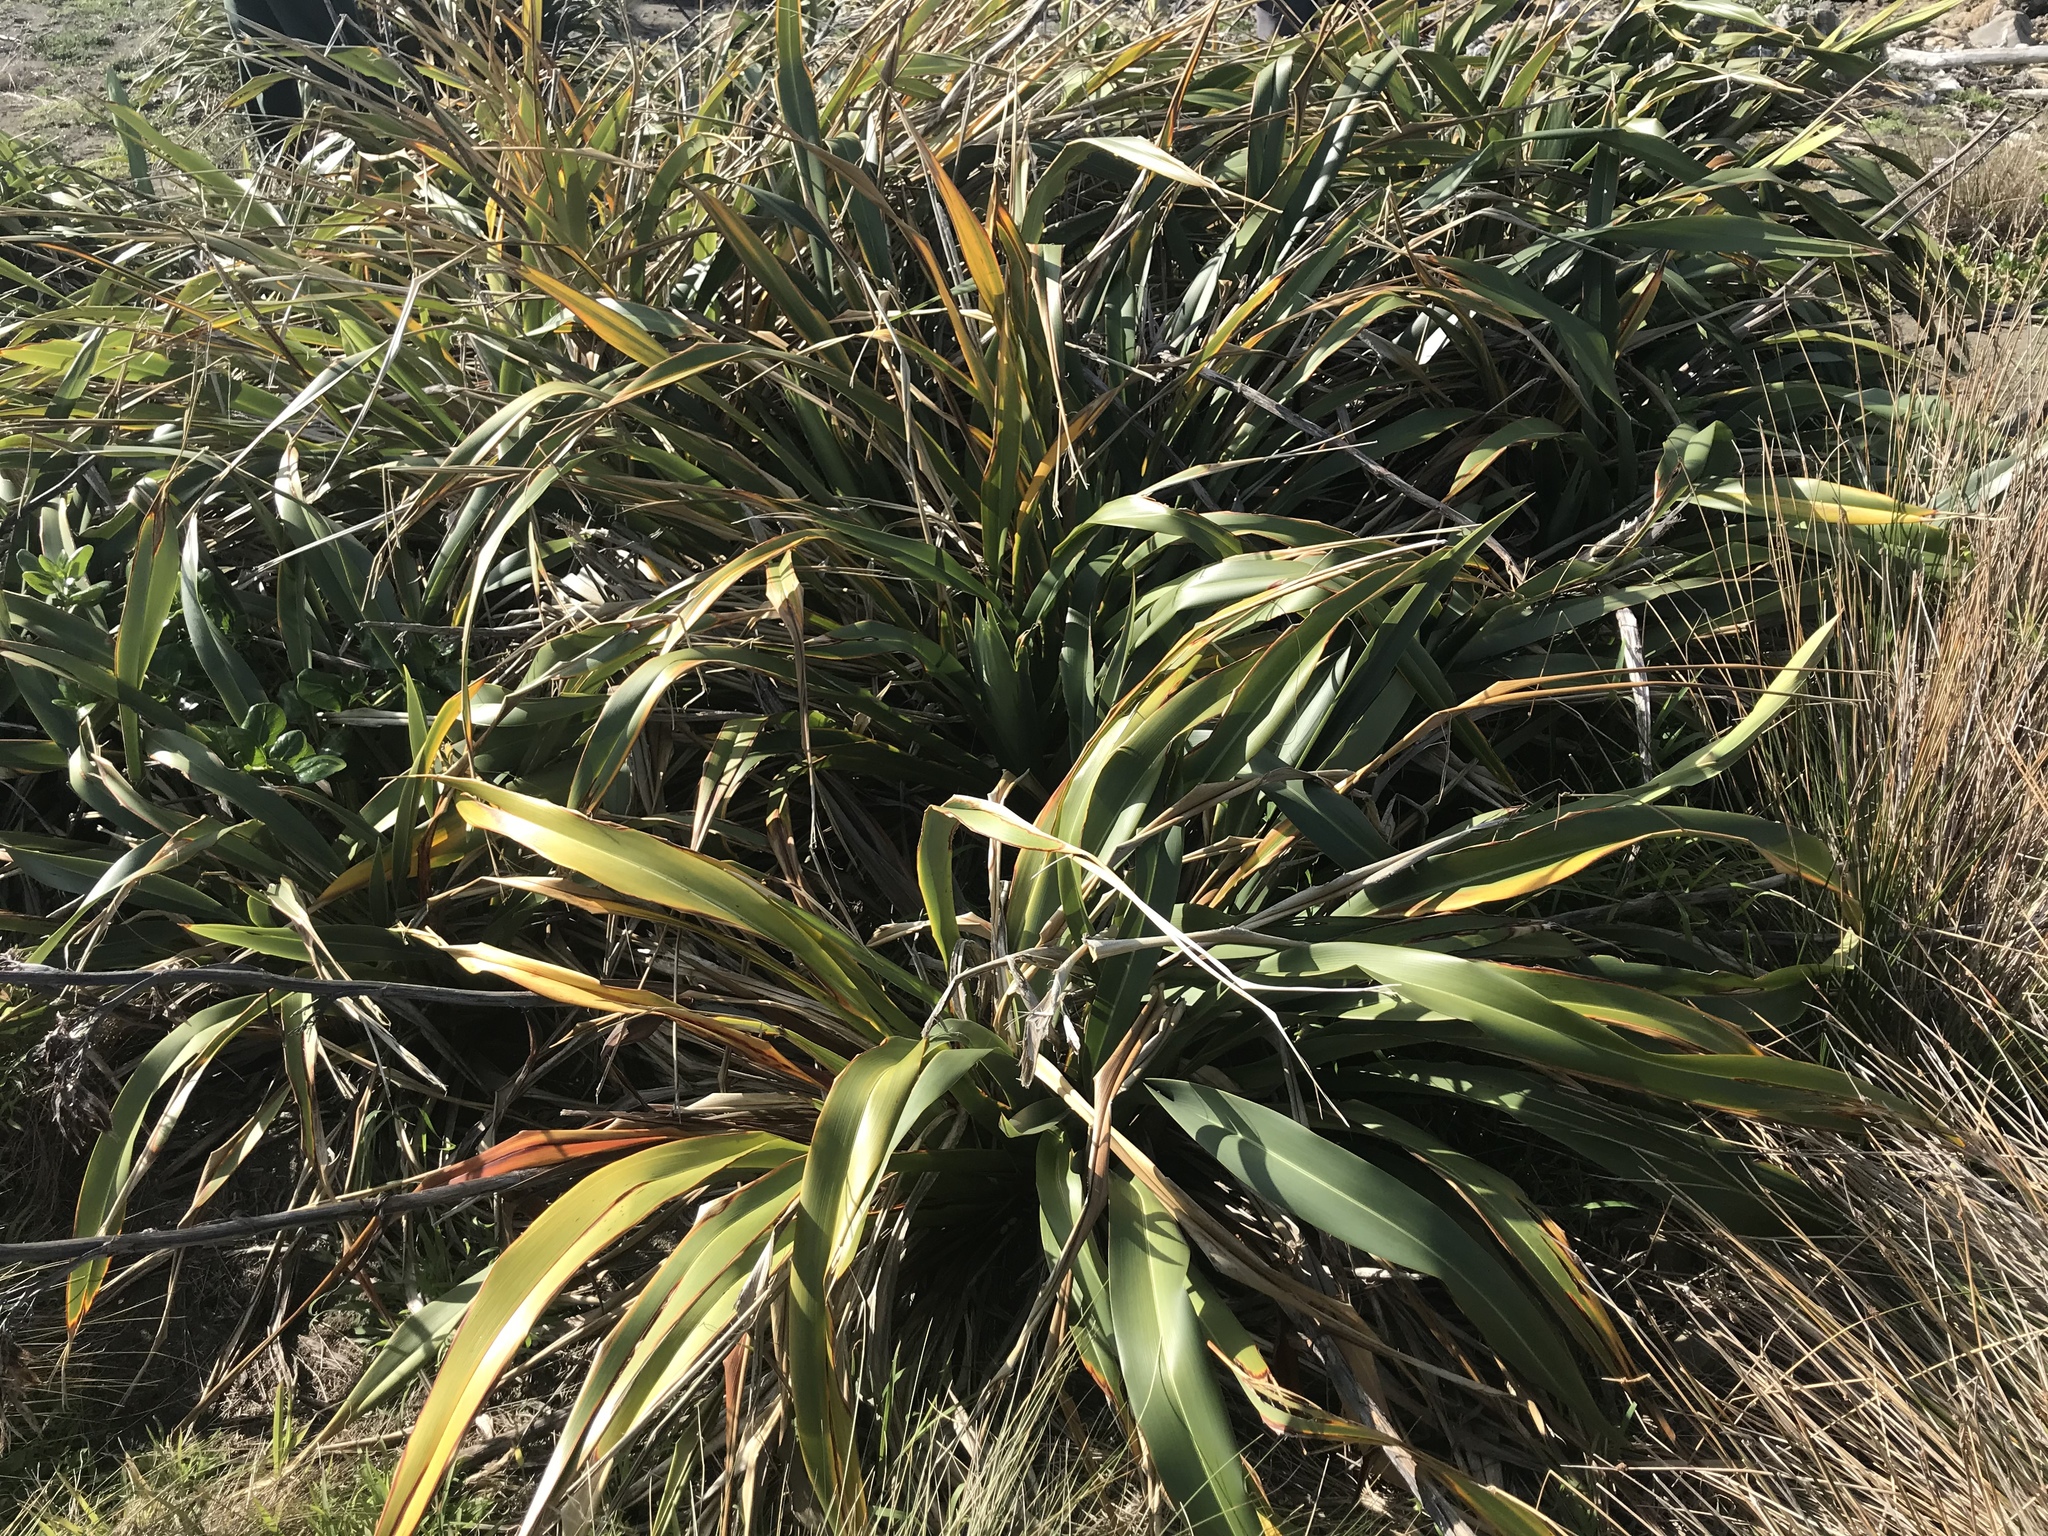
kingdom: Plantae
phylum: Tracheophyta
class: Liliopsida
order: Asparagales
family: Asphodelaceae
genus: Phormium
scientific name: Phormium colensoi
